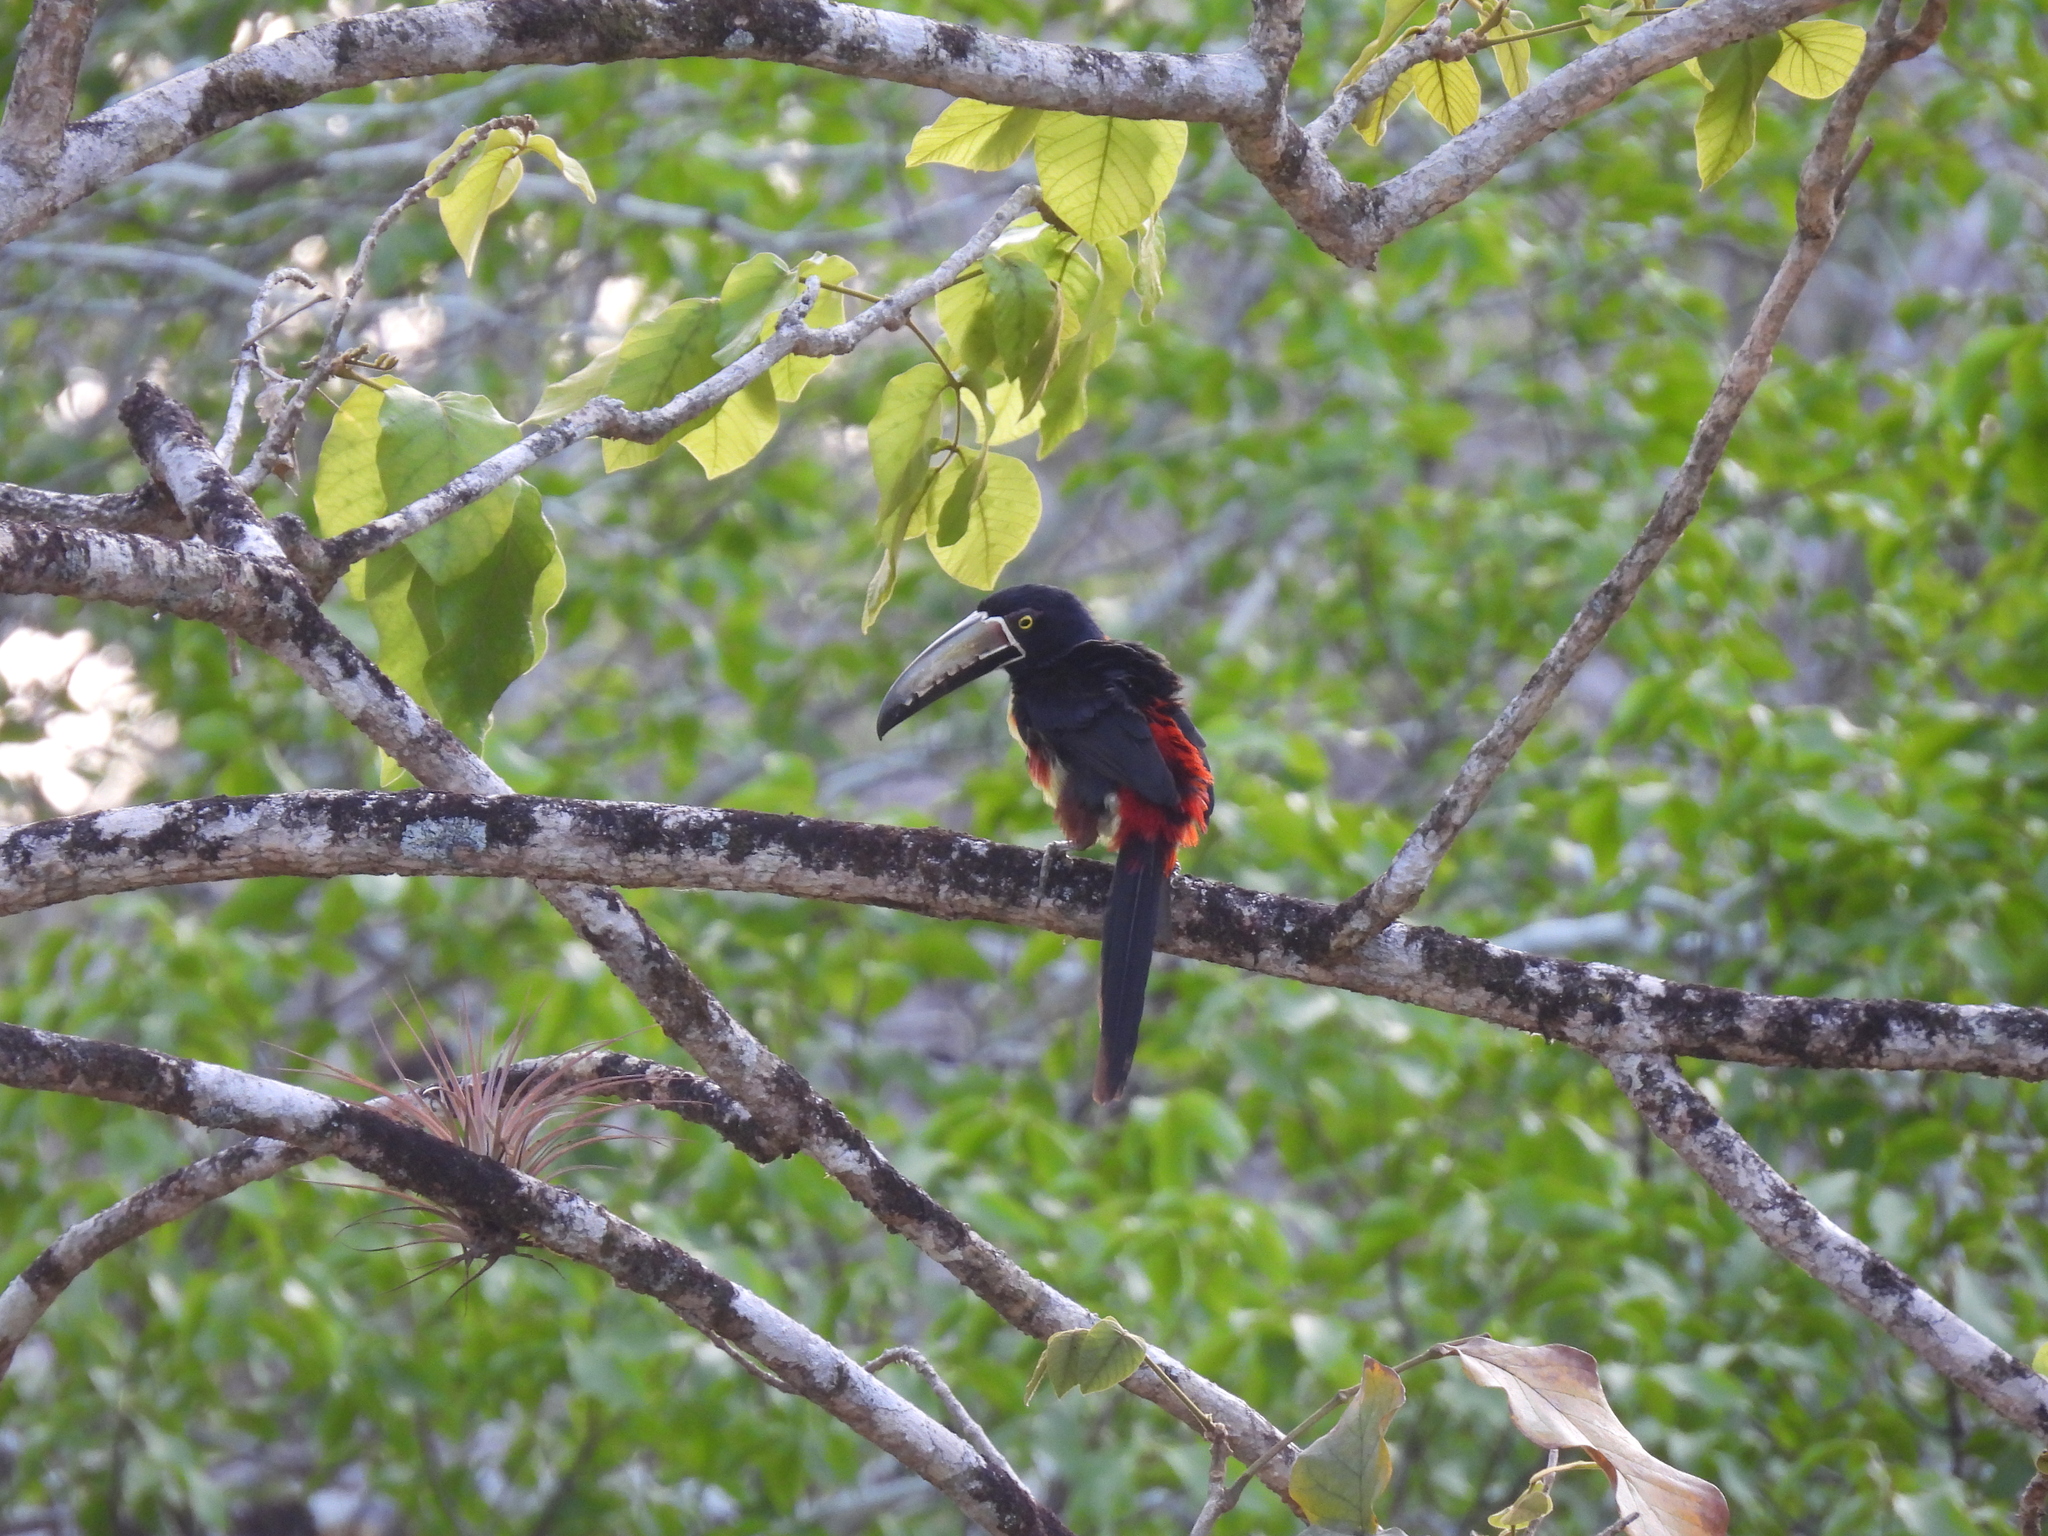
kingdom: Animalia
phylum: Chordata
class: Aves
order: Piciformes
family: Ramphastidae
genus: Pteroglossus
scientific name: Pteroglossus torquatus
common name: Collared aracari
